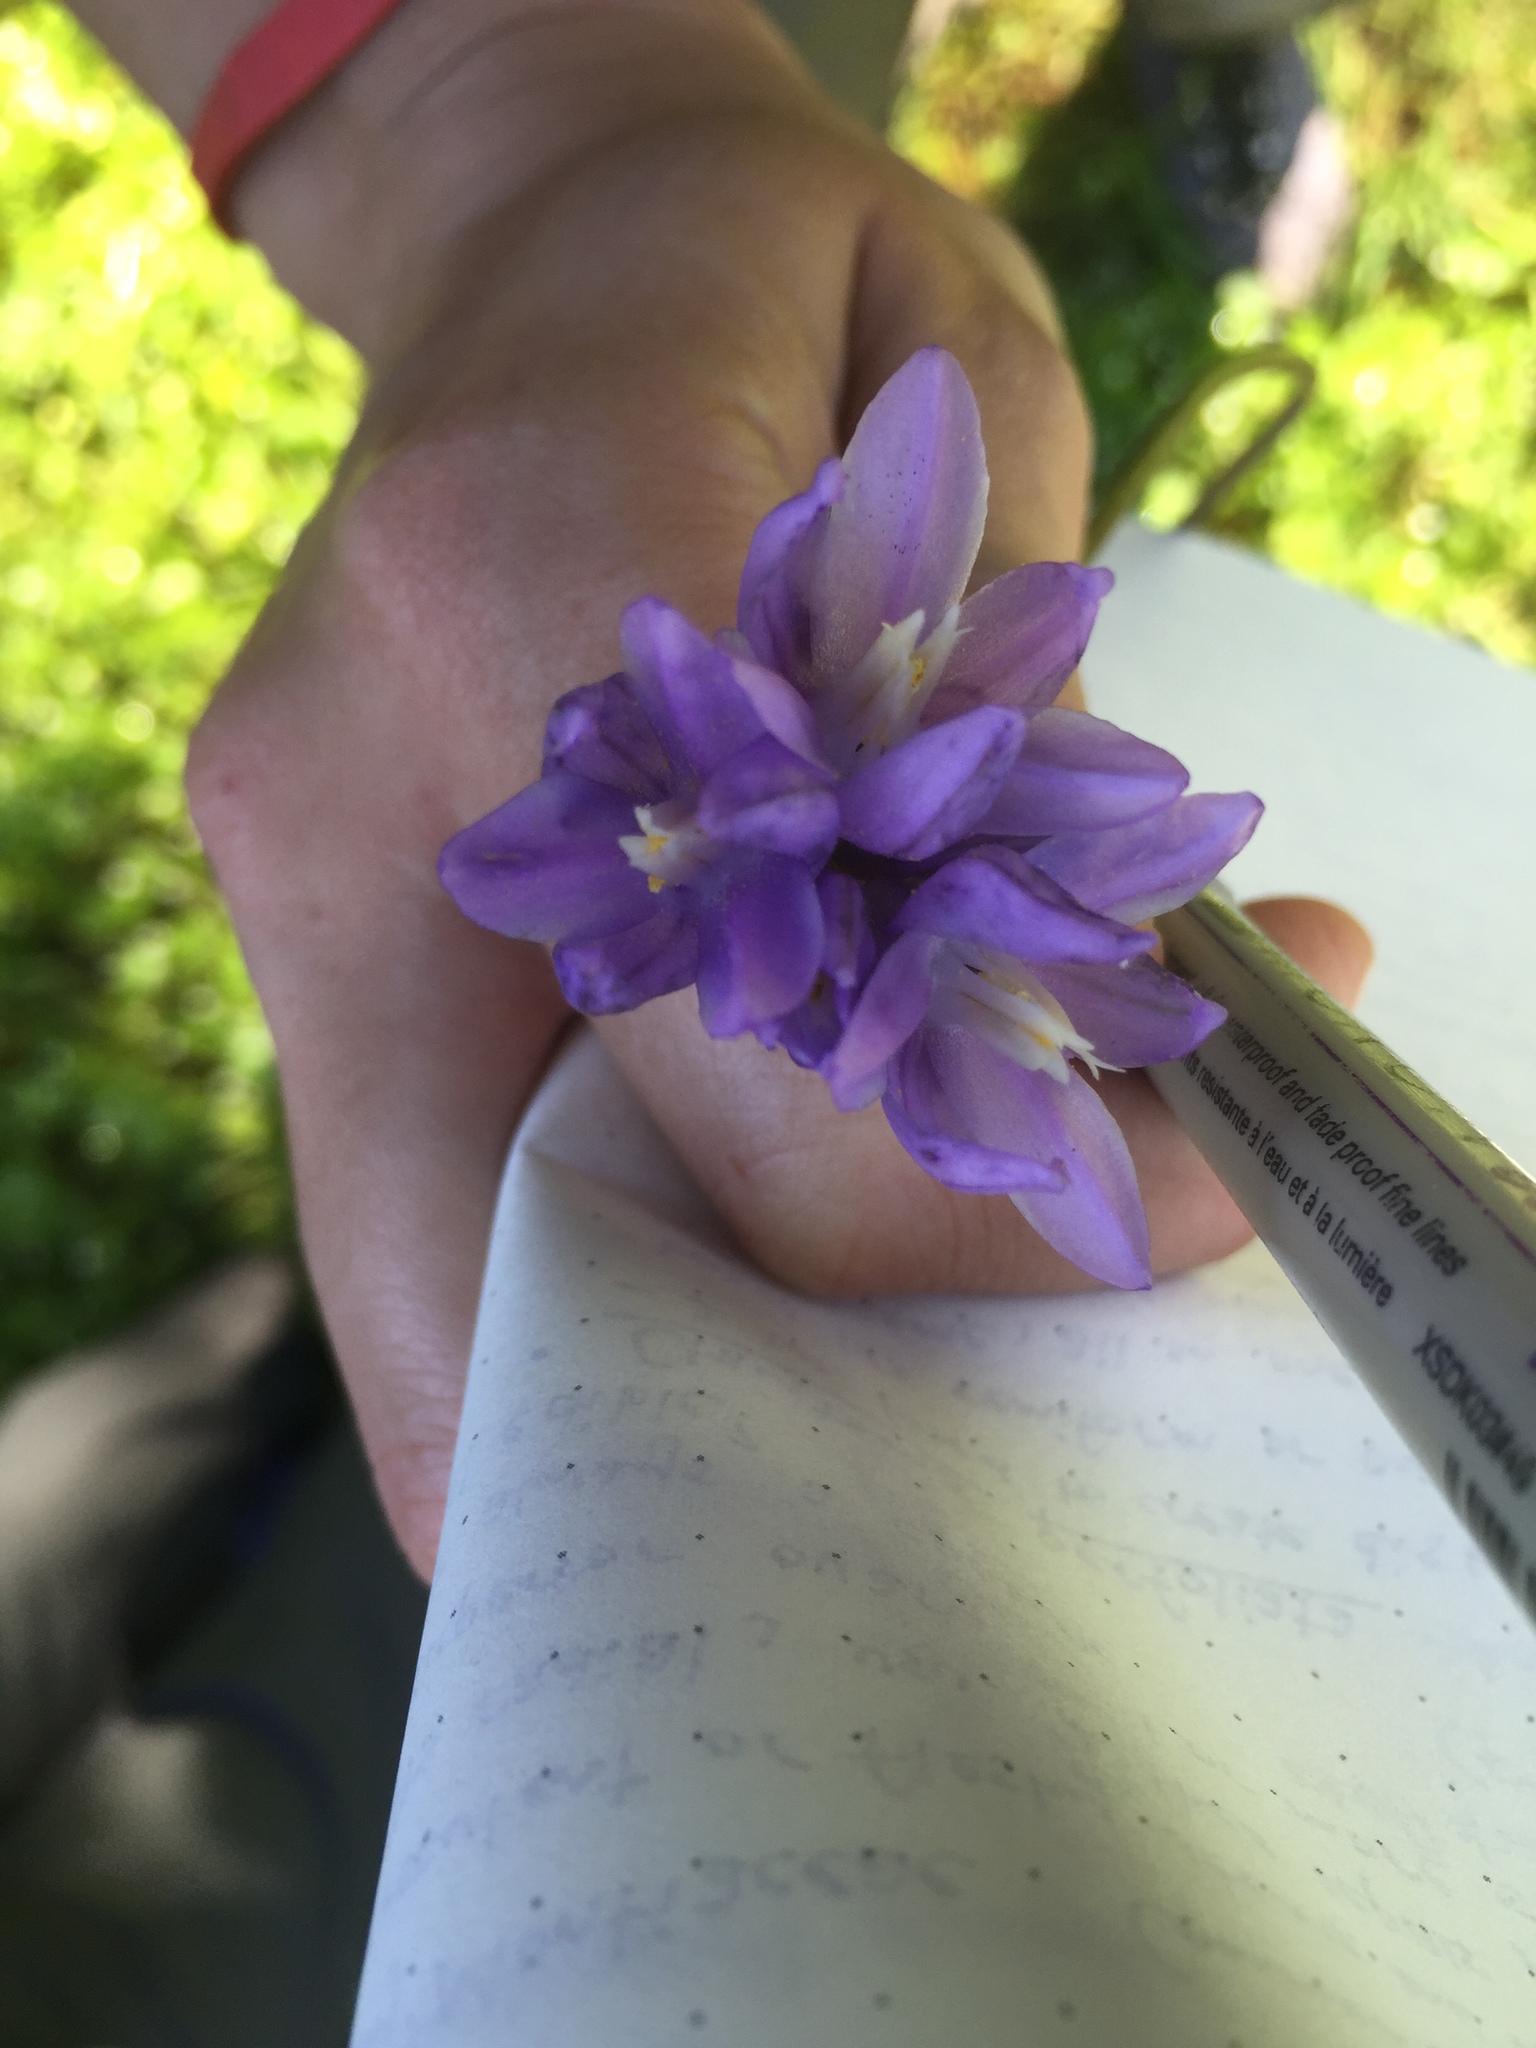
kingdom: Plantae
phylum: Tracheophyta
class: Liliopsida
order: Asparagales
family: Asparagaceae
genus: Dipterostemon
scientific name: Dipterostemon capitatus
